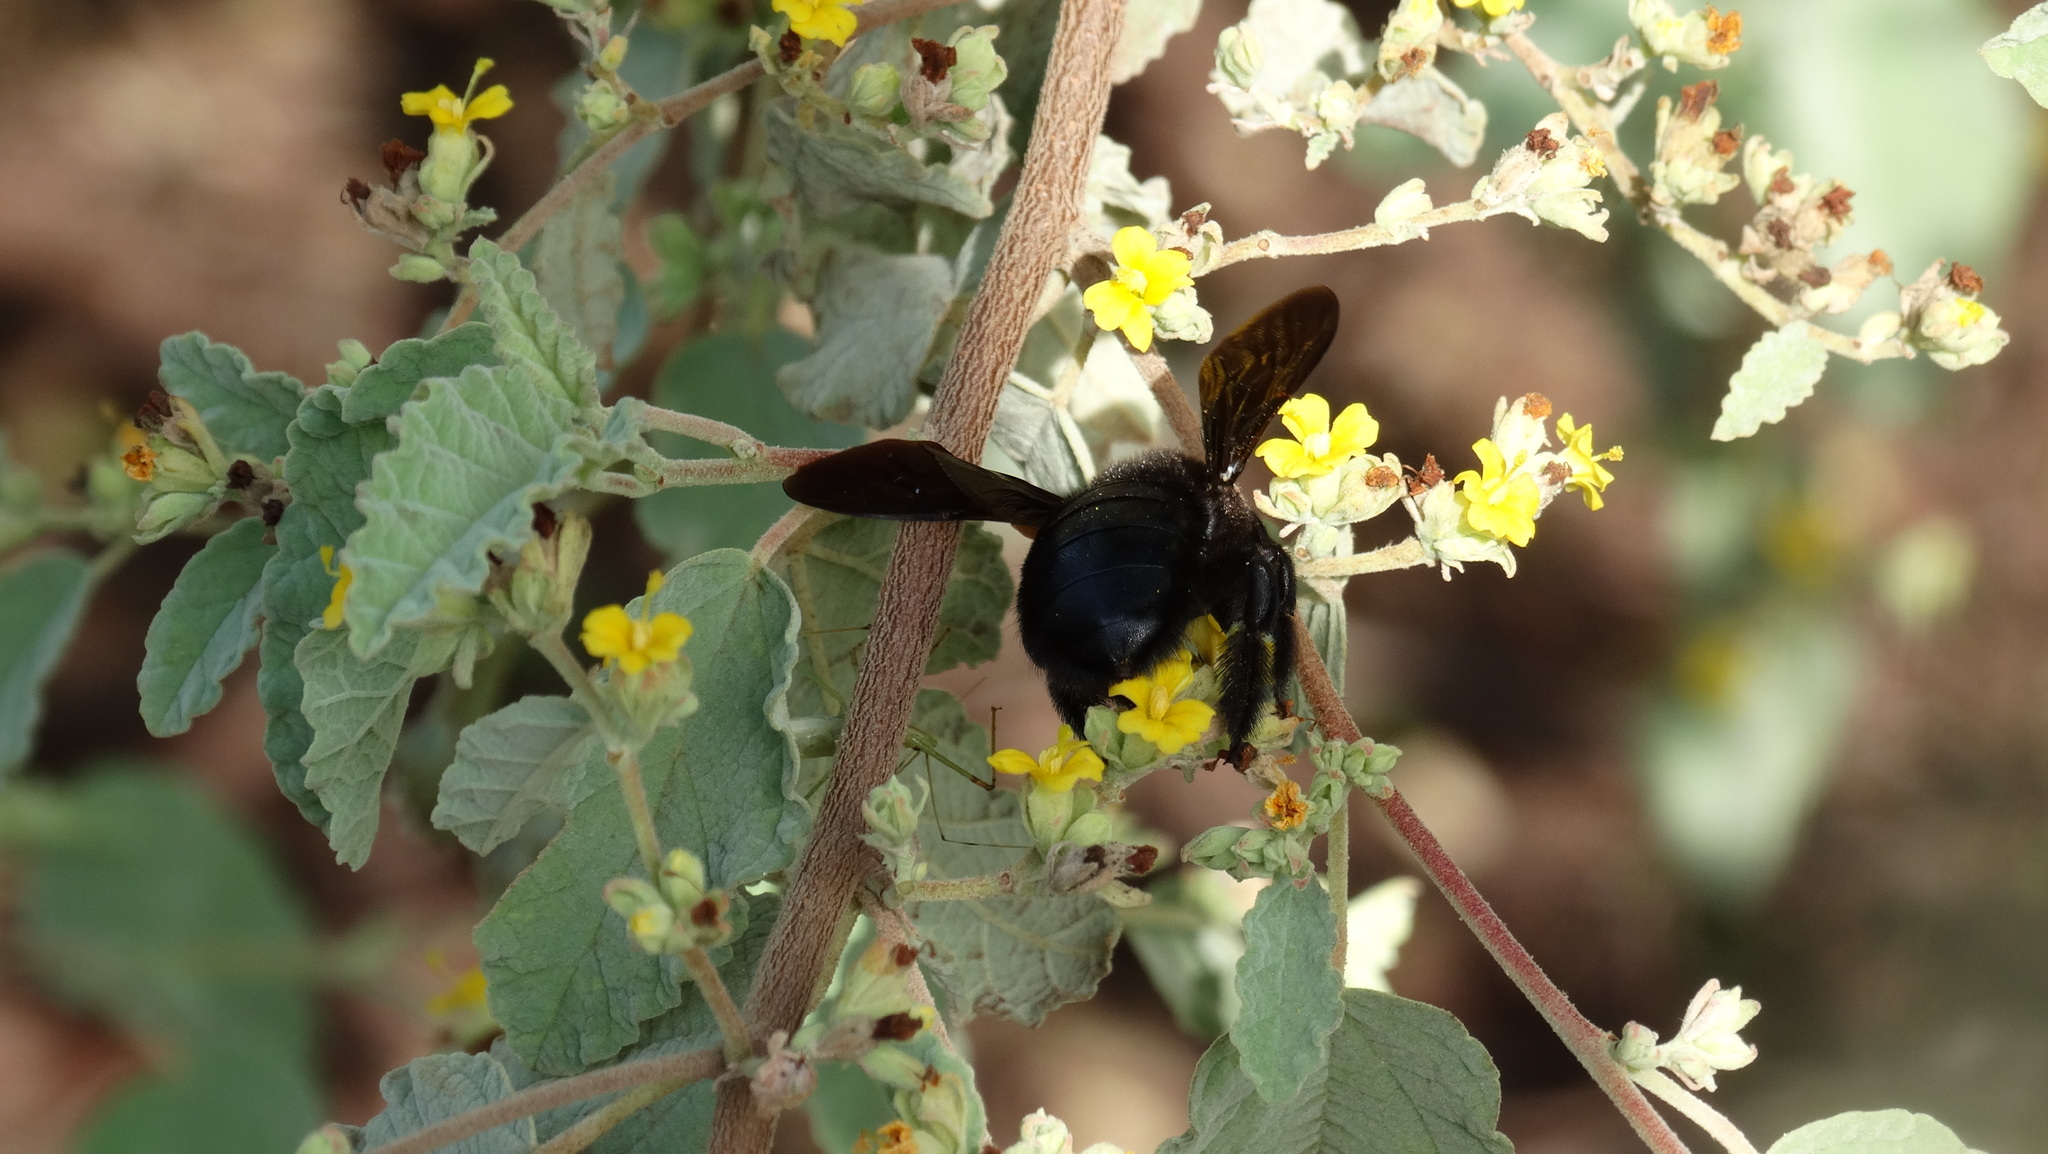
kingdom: Animalia
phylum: Arthropoda
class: Insecta
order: Hymenoptera
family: Apidae
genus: Xylocopa
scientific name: Xylocopa darwini
